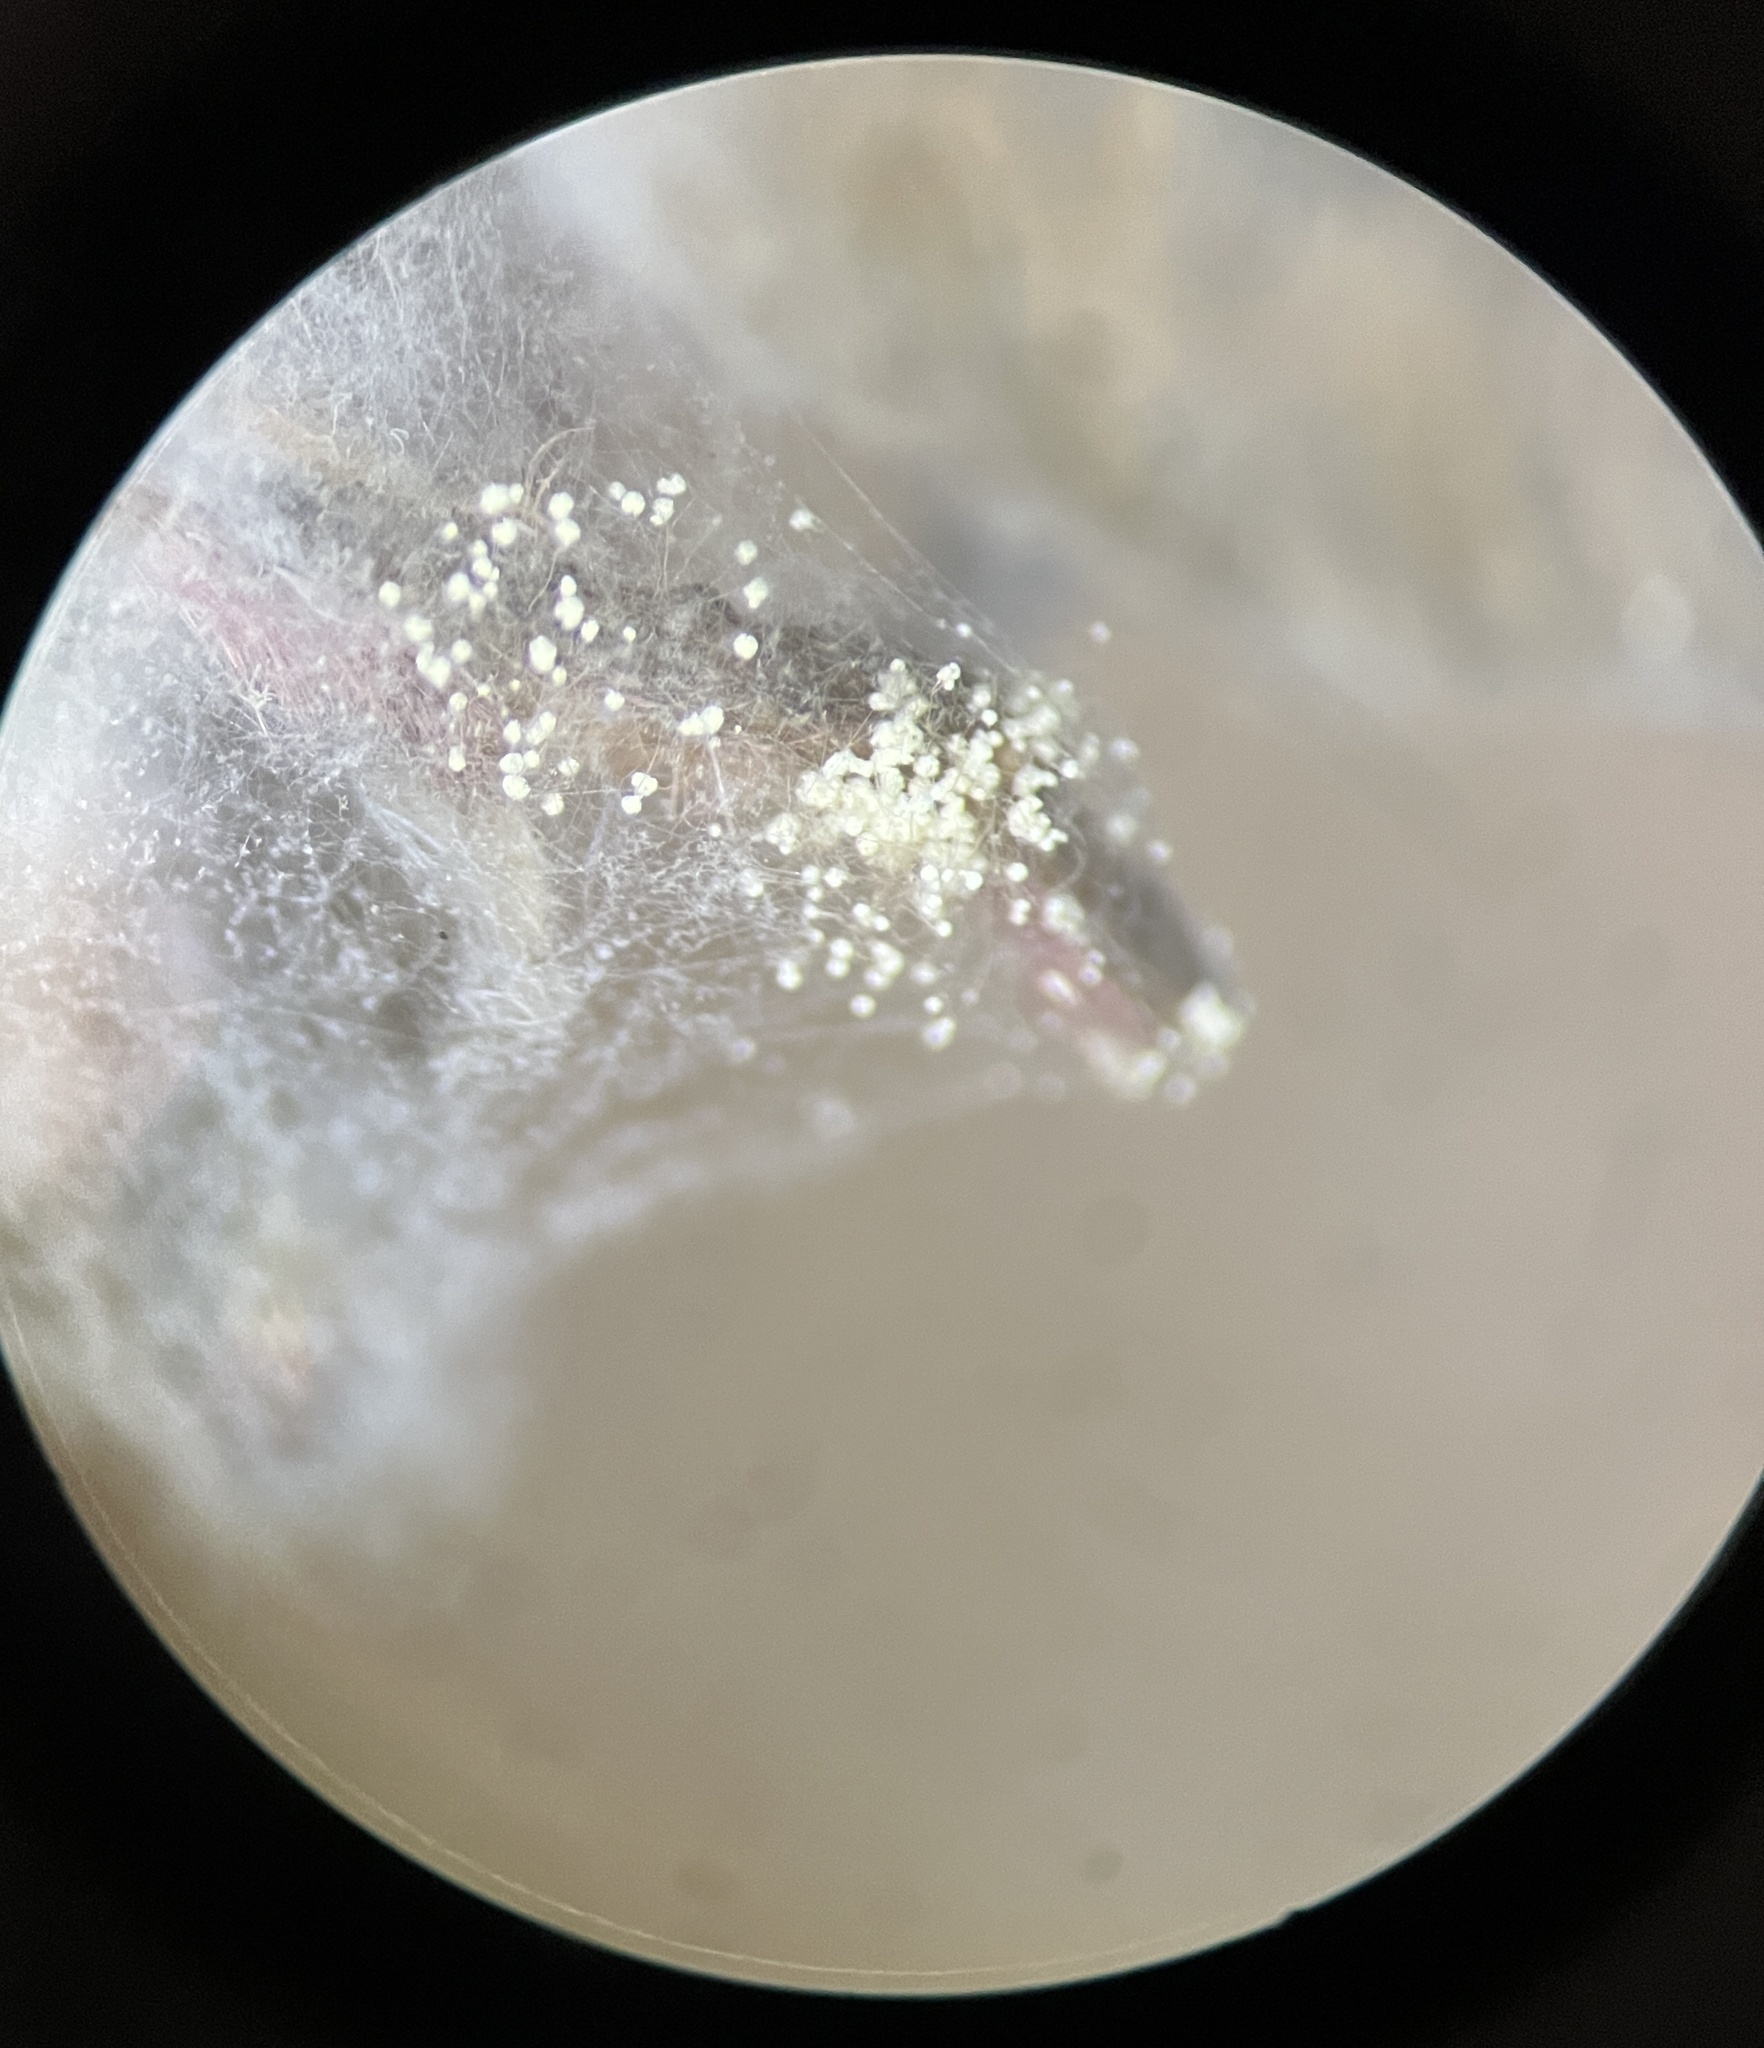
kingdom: Fungi
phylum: Ascomycota
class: Sordariomycetes
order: Hypocreales
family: Cordycipitaceae
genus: Beauveria
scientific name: Beauveria bassiana
